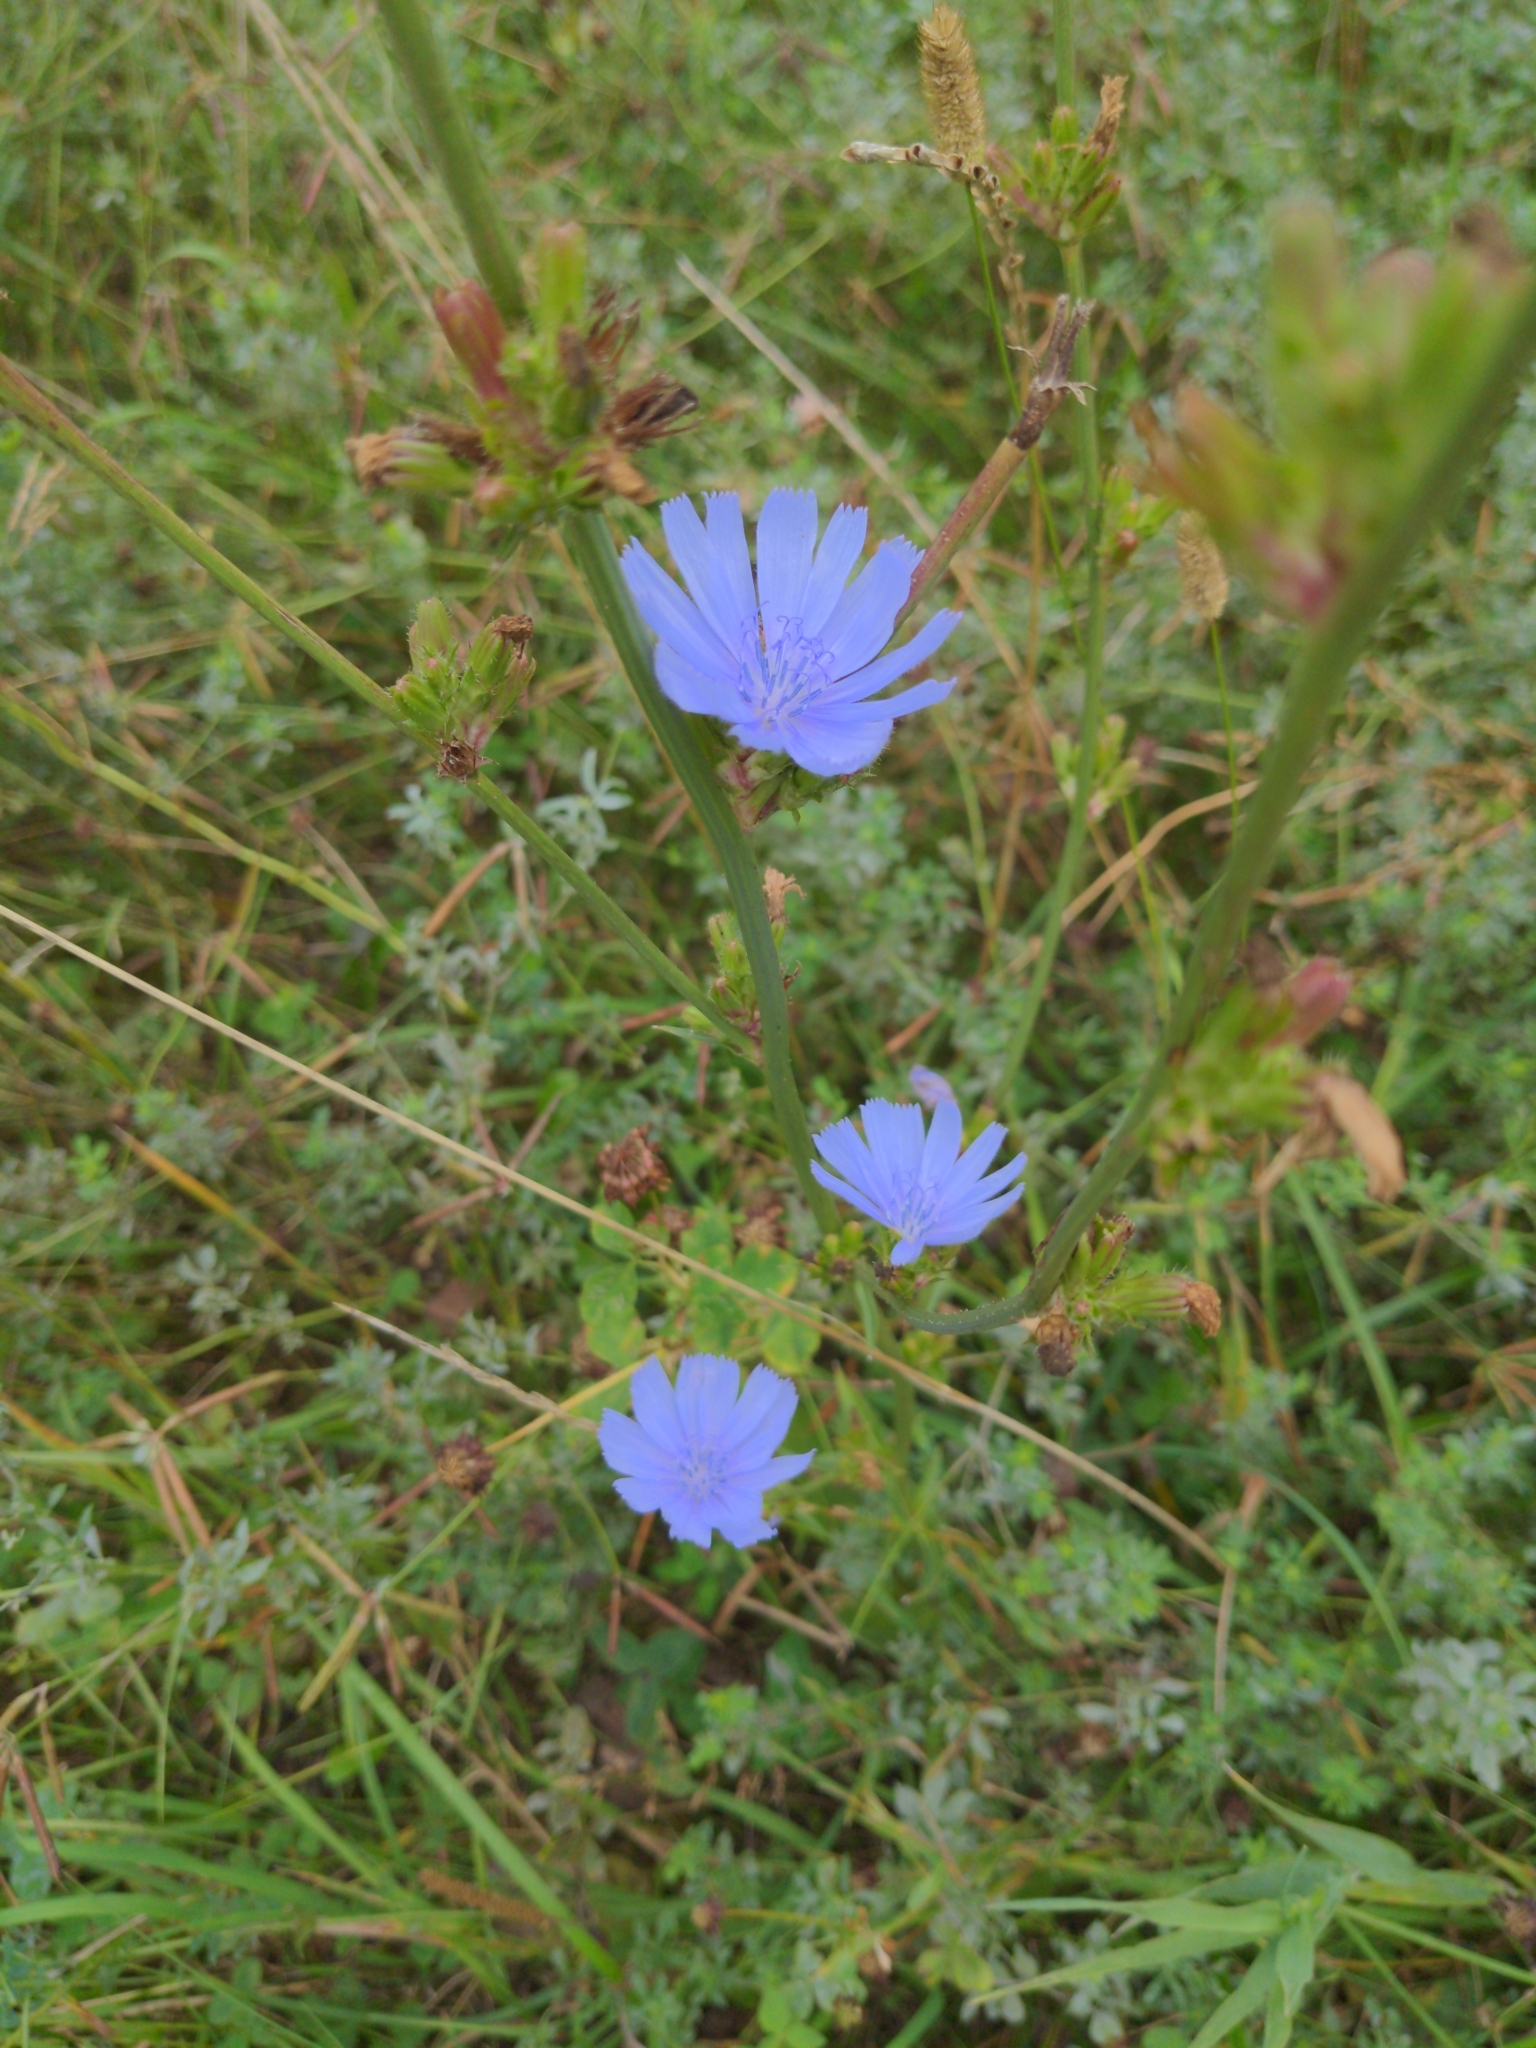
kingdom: Plantae
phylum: Tracheophyta
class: Magnoliopsida
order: Asterales
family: Asteraceae
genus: Cichorium
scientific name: Cichorium intybus
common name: Chicory
